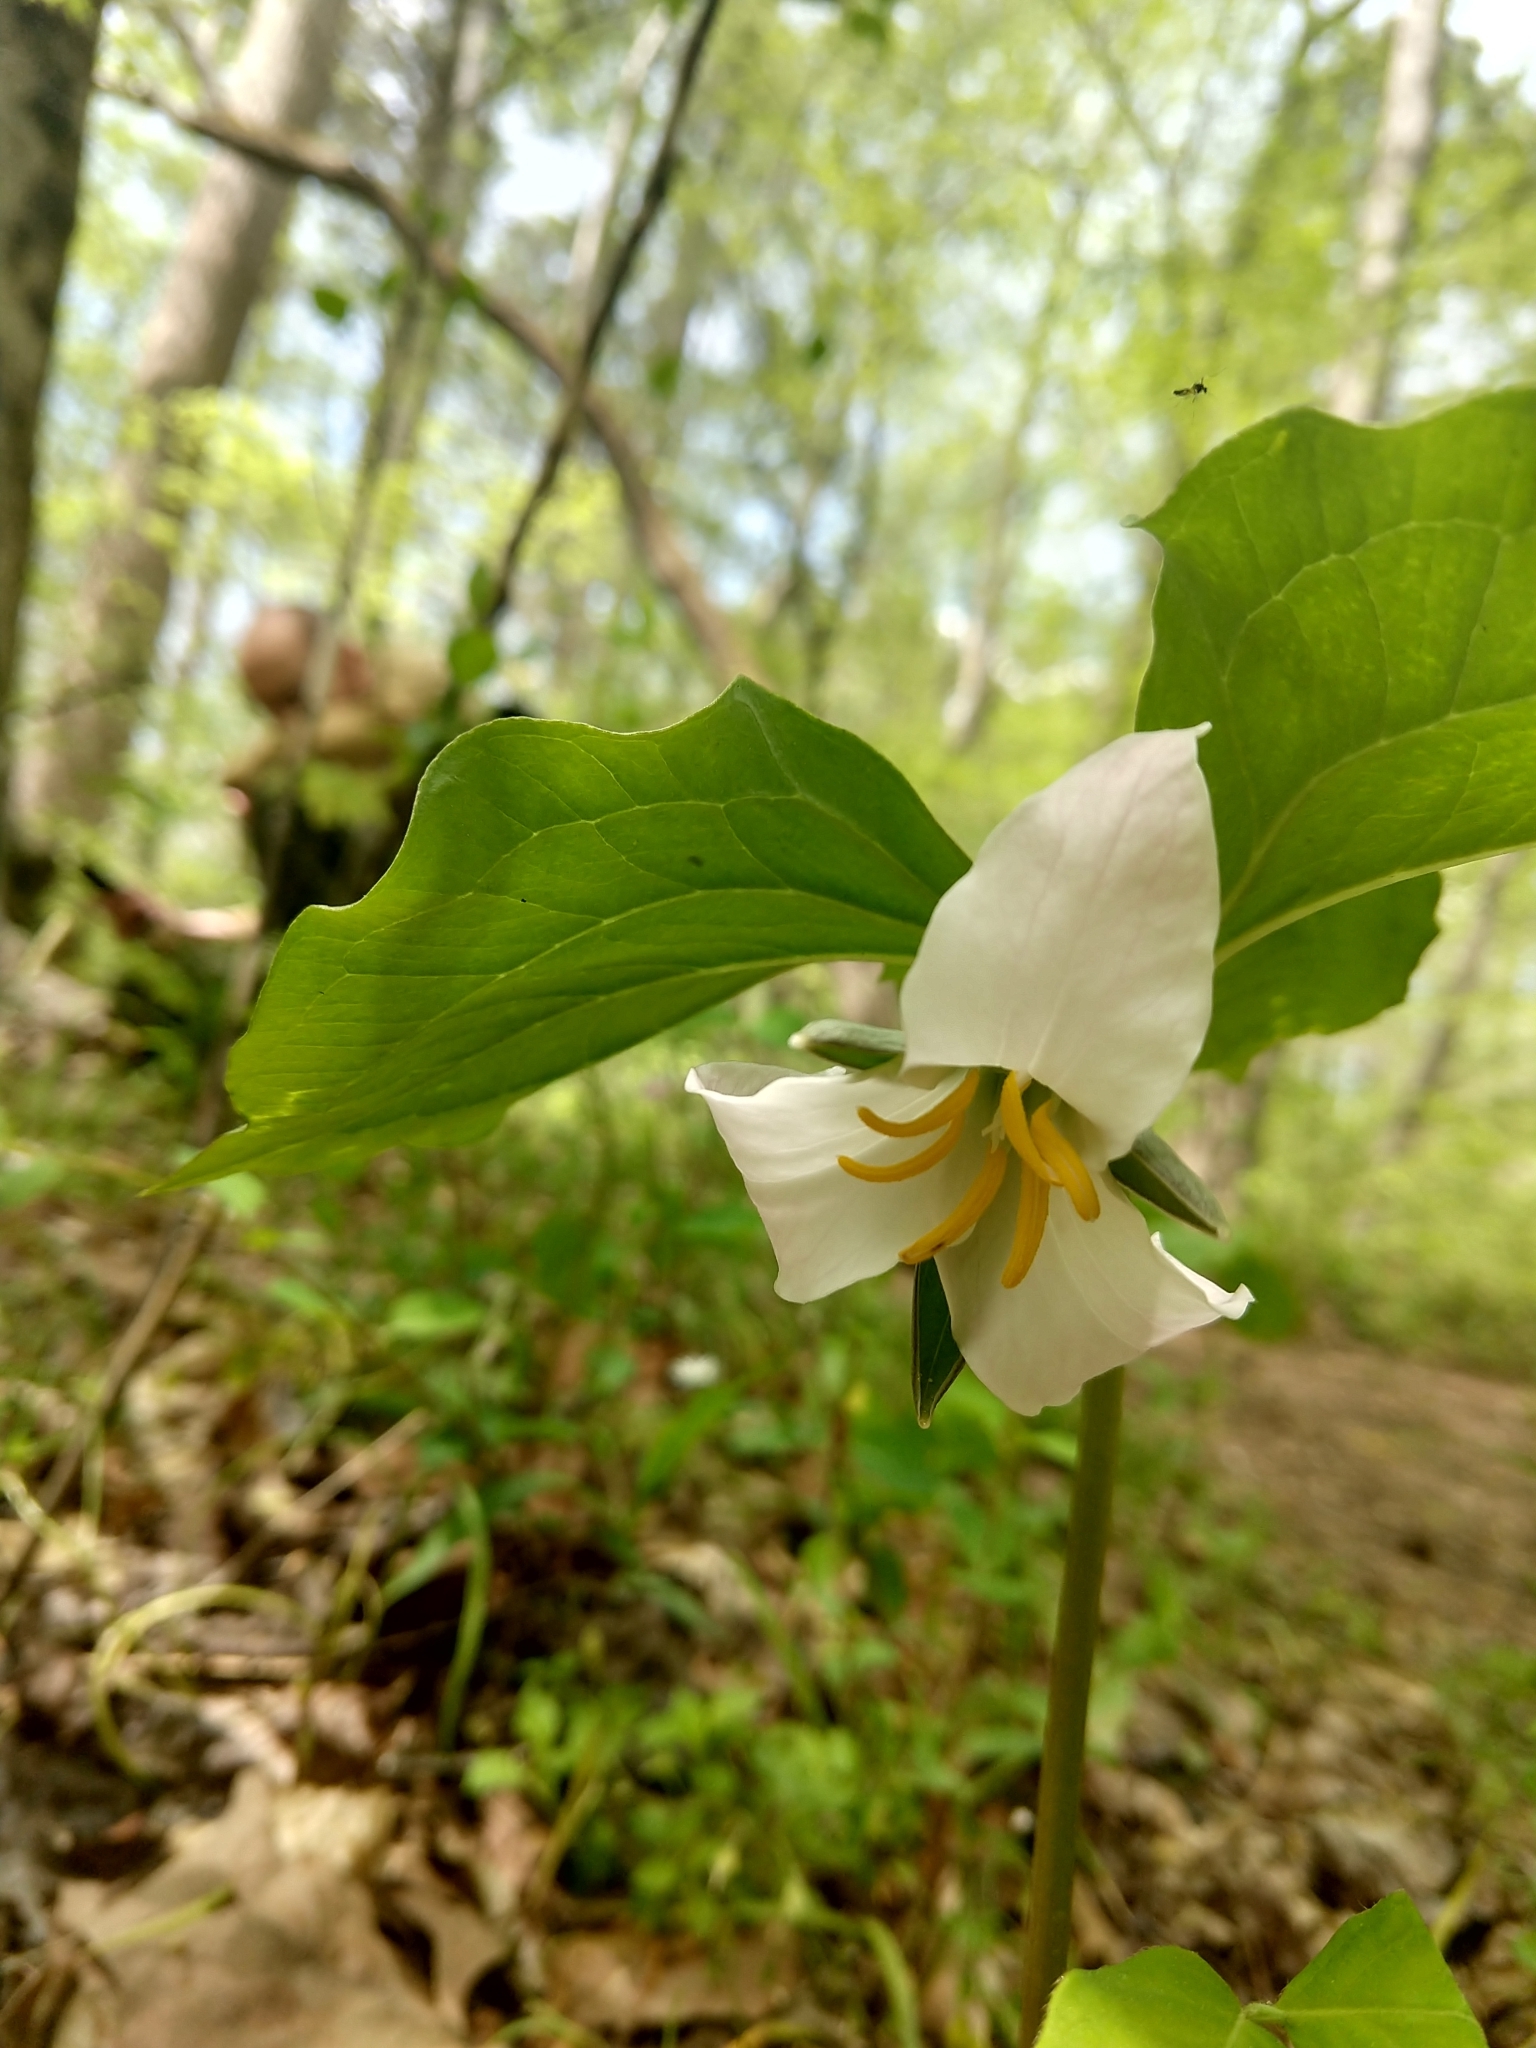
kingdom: Plantae
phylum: Tracheophyta
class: Liliopsida
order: Liliales
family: Melanthiaceae
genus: Trillium
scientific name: Trillium catesbaei
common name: Bashful trillium
